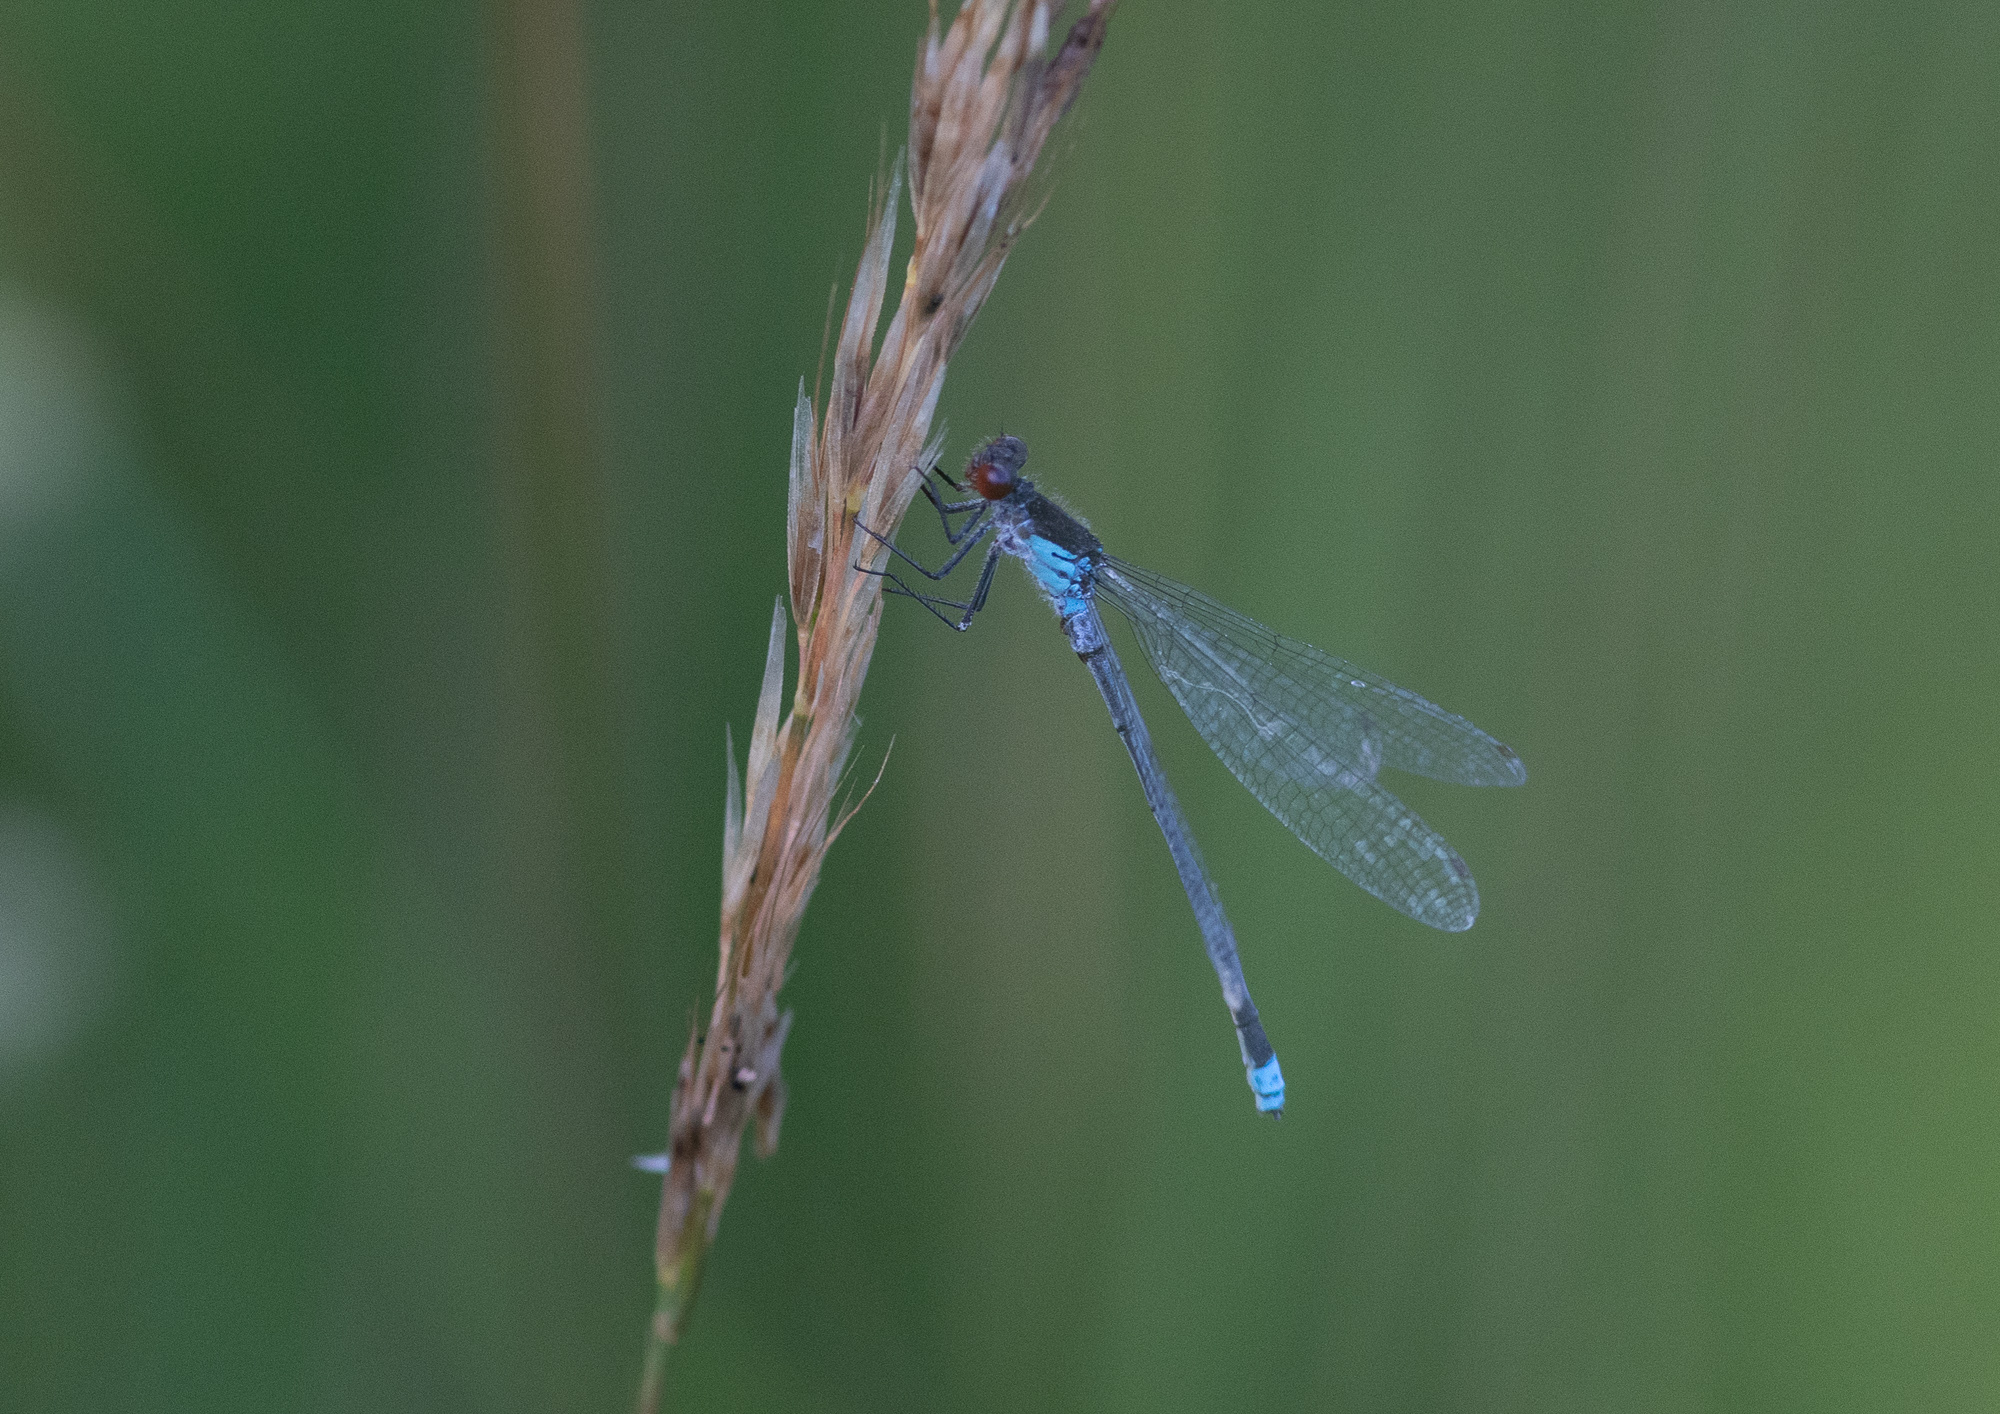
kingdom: Animalia
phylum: Arthropoda
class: Insecta
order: Odonata
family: Coenagrionidae
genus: Erythromma
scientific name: Erythromma najas
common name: Red-eyed damselfly
